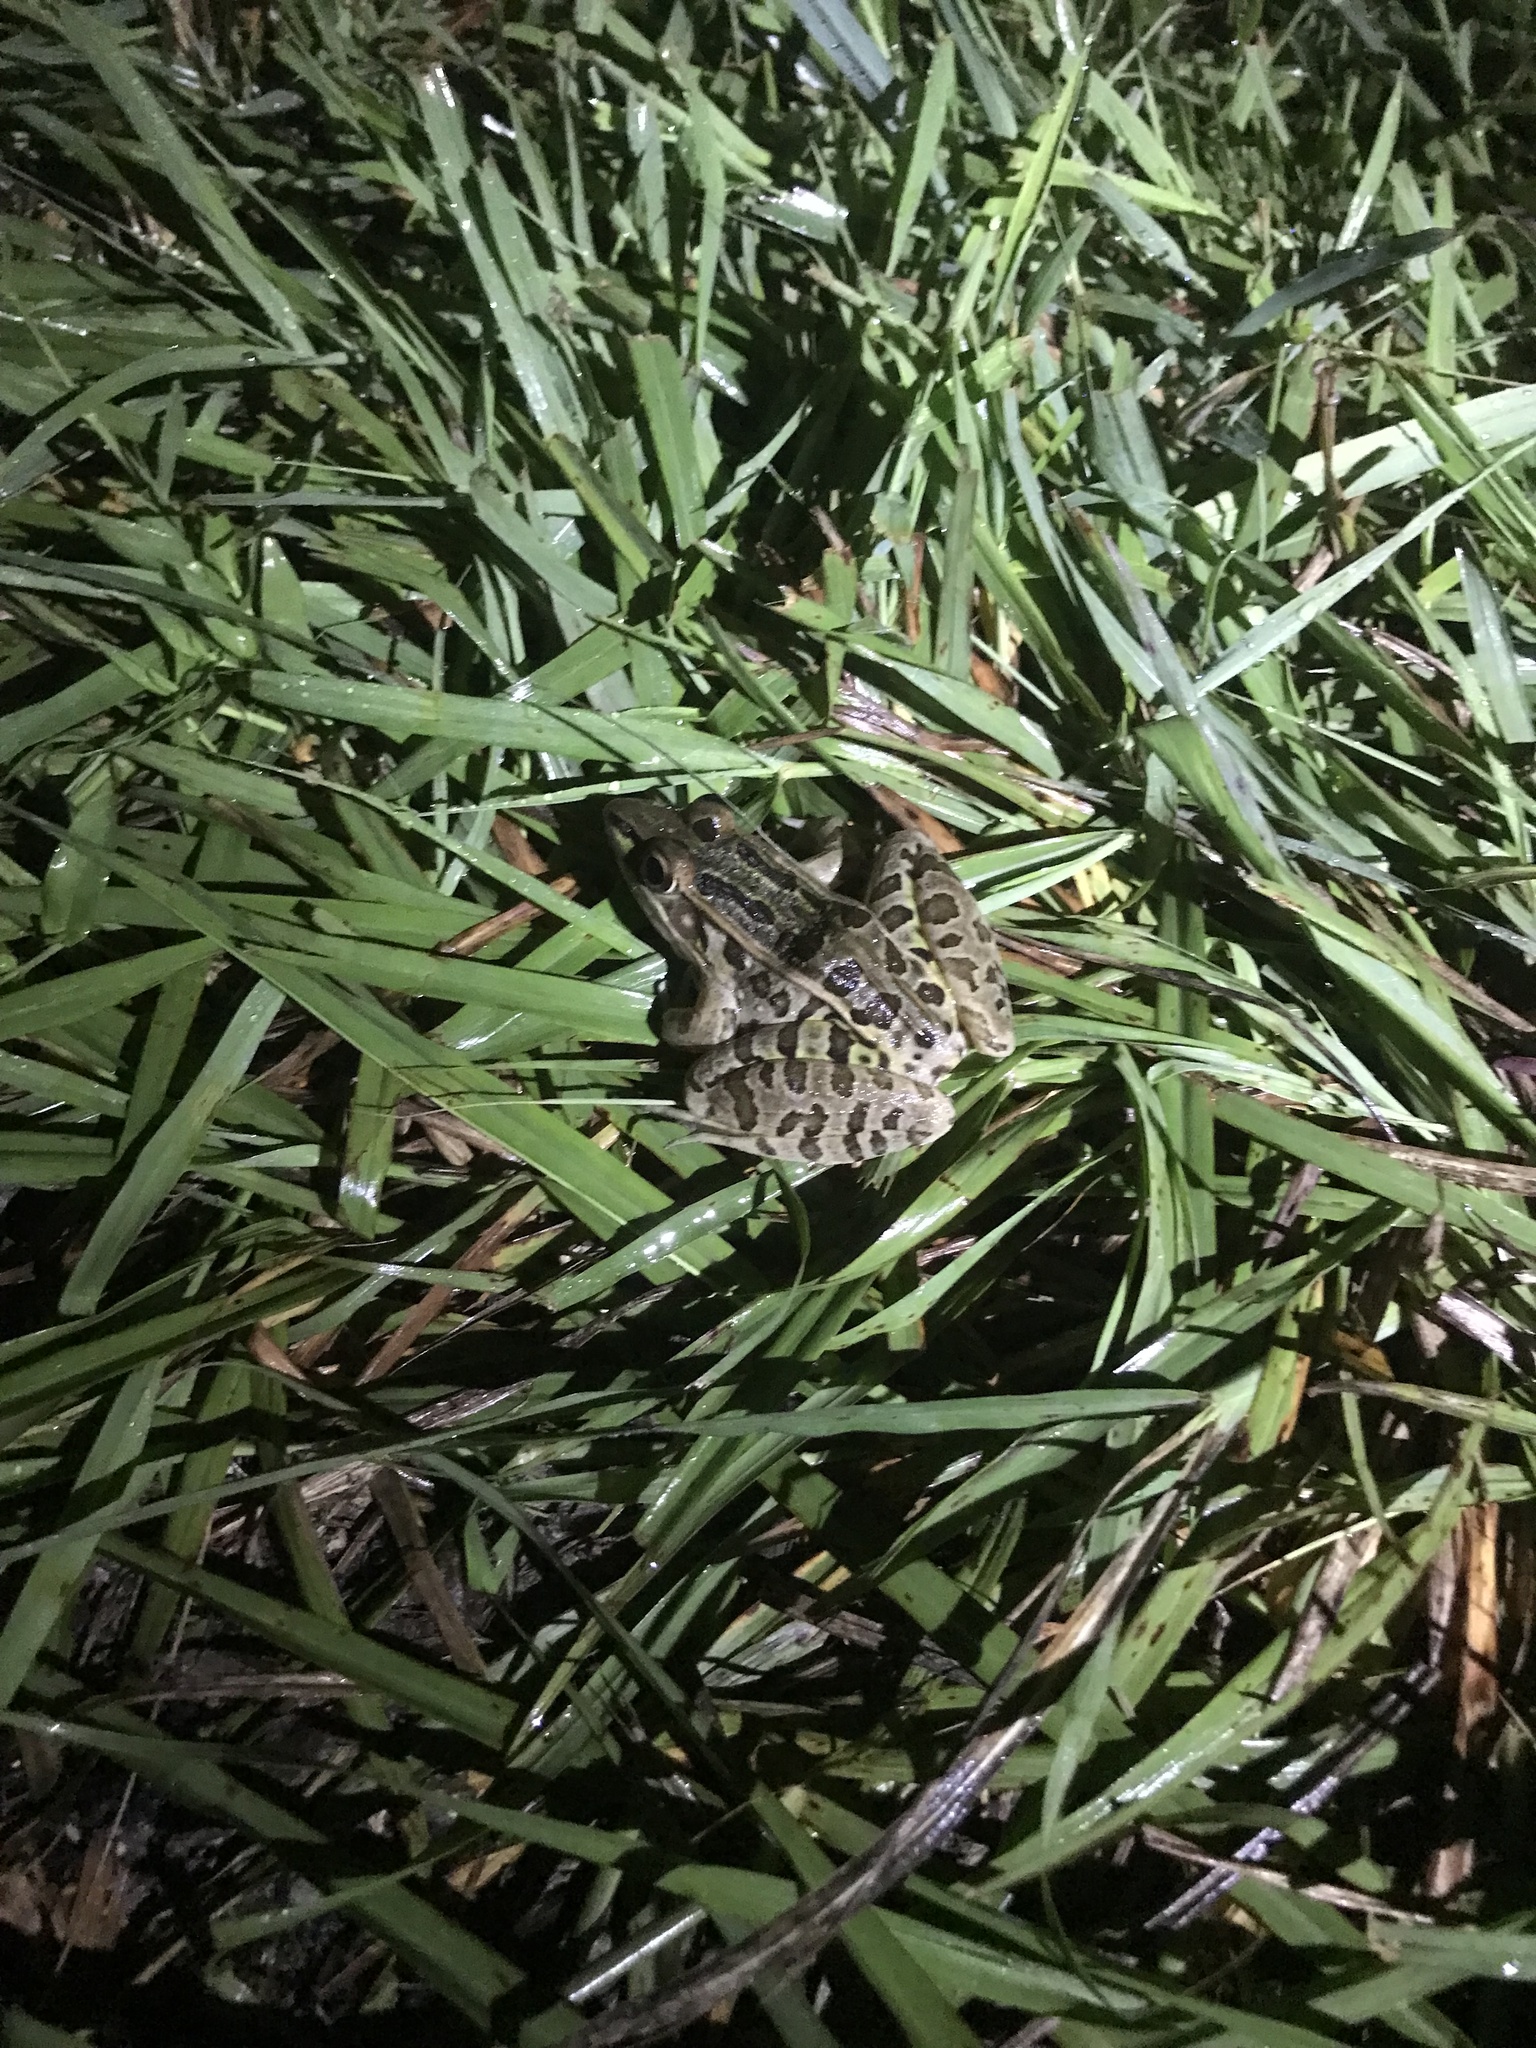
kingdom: Animalia
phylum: Chordata
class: Amphibia
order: Anura
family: Ranidae
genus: Lithobates
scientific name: Lithobates sphenocephalus
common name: Southern leopard frog
